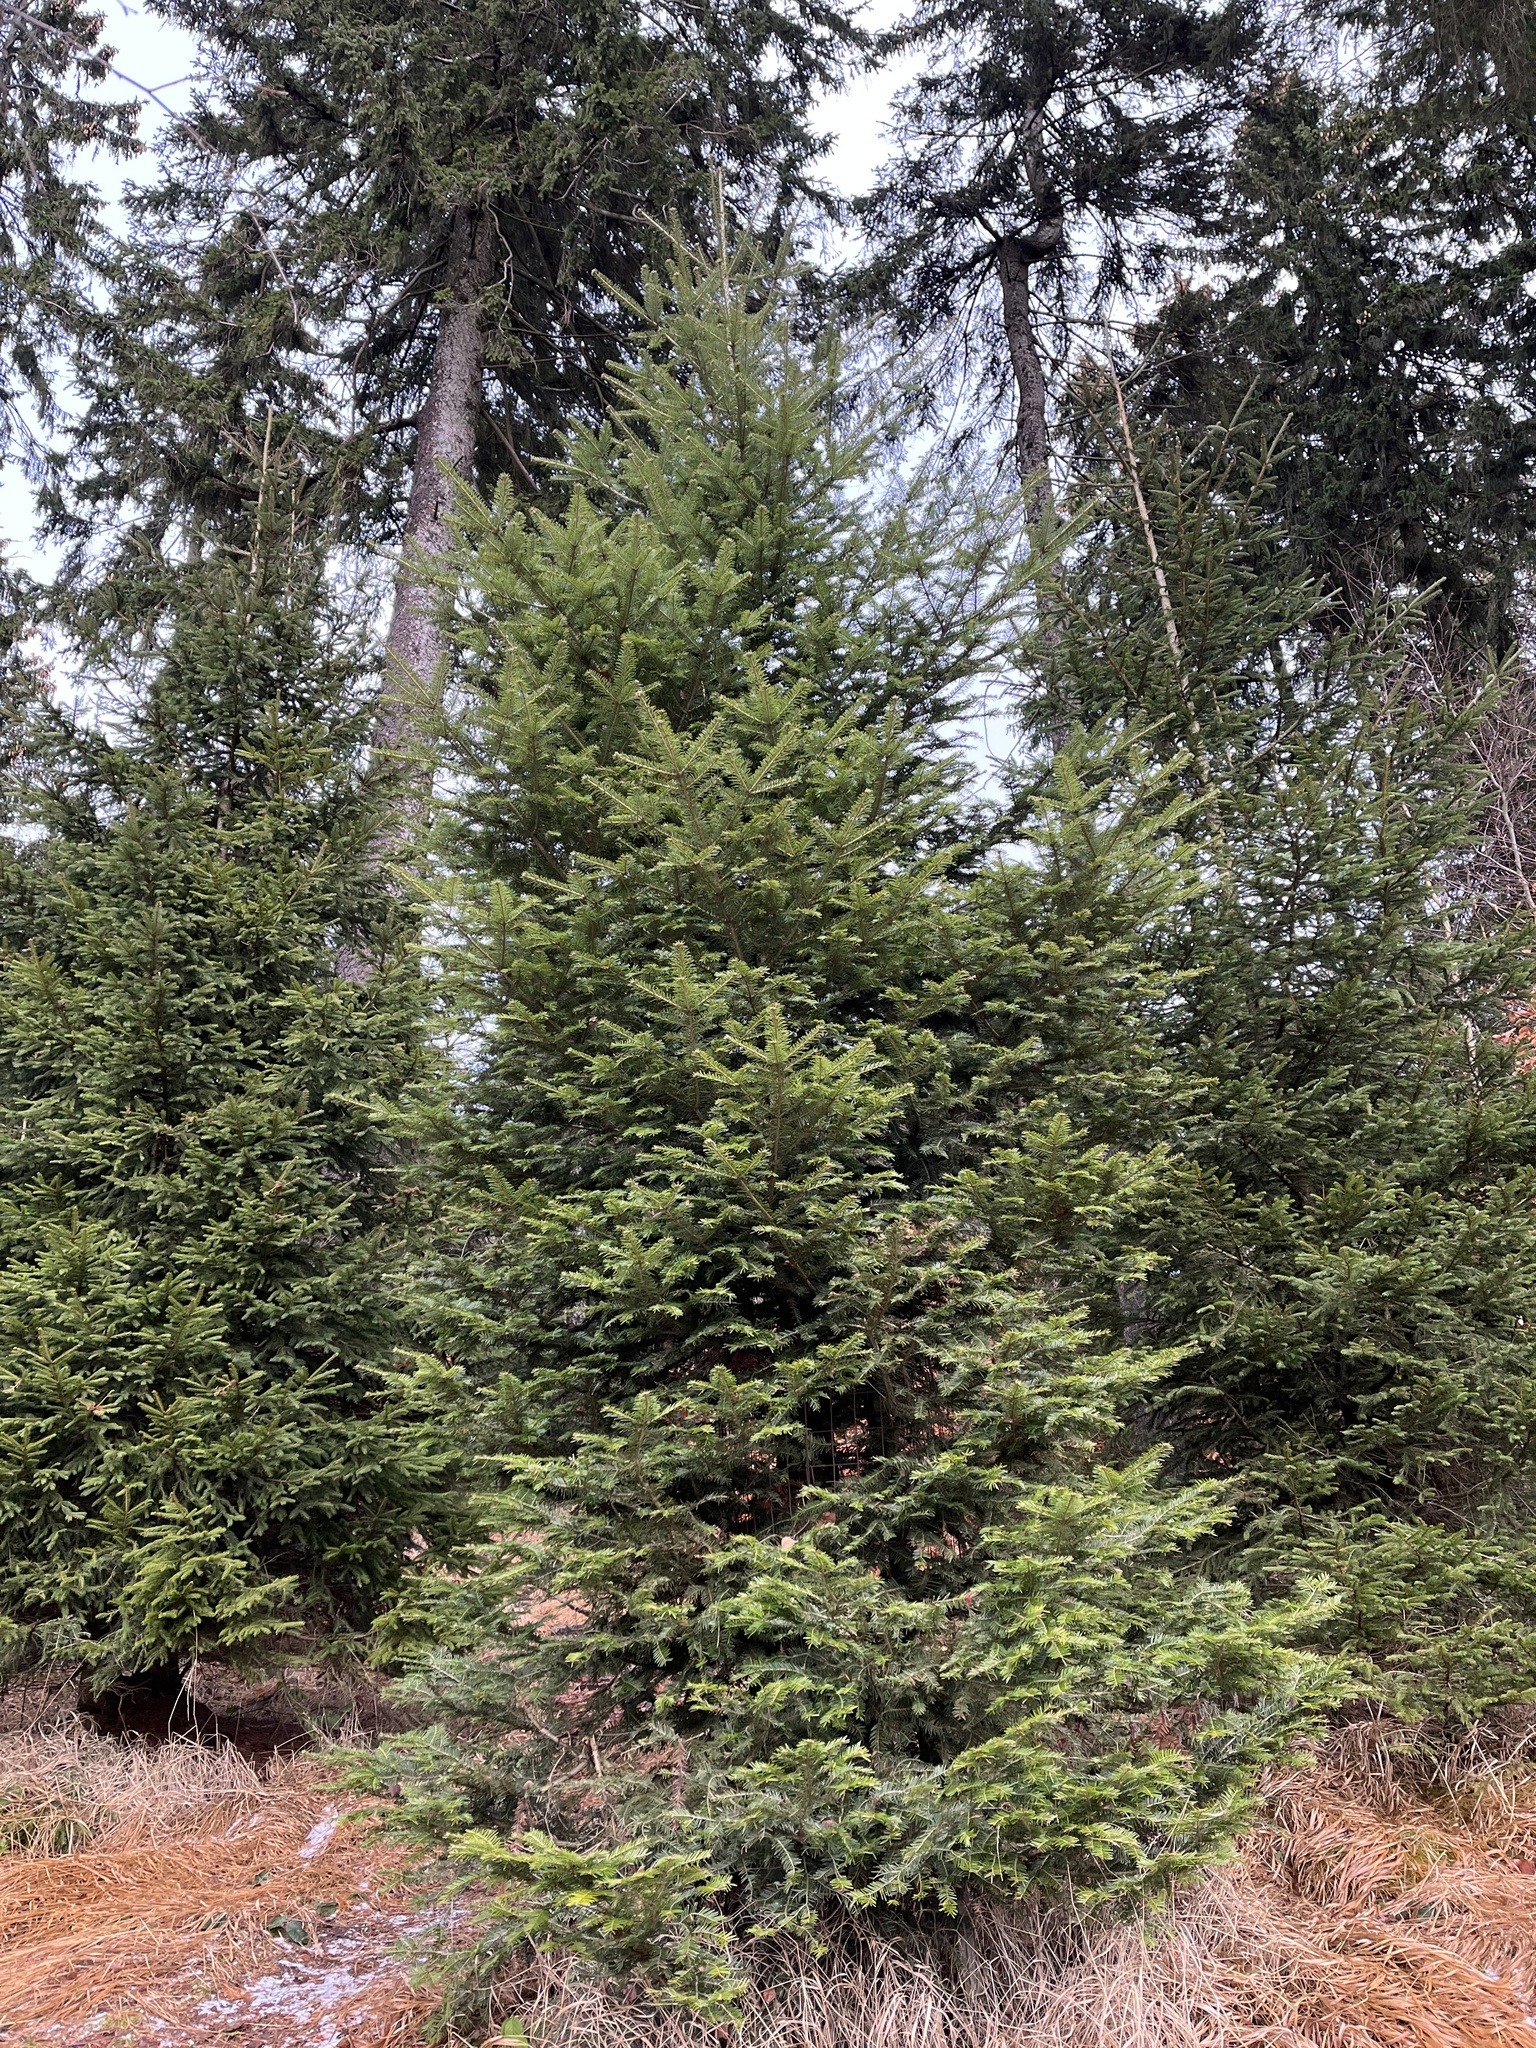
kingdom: Plantae
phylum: Tracheophyta
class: Pinopsida
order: Pinales
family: Pinaceae
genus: Abies
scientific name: Abies alba
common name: Silver fir
